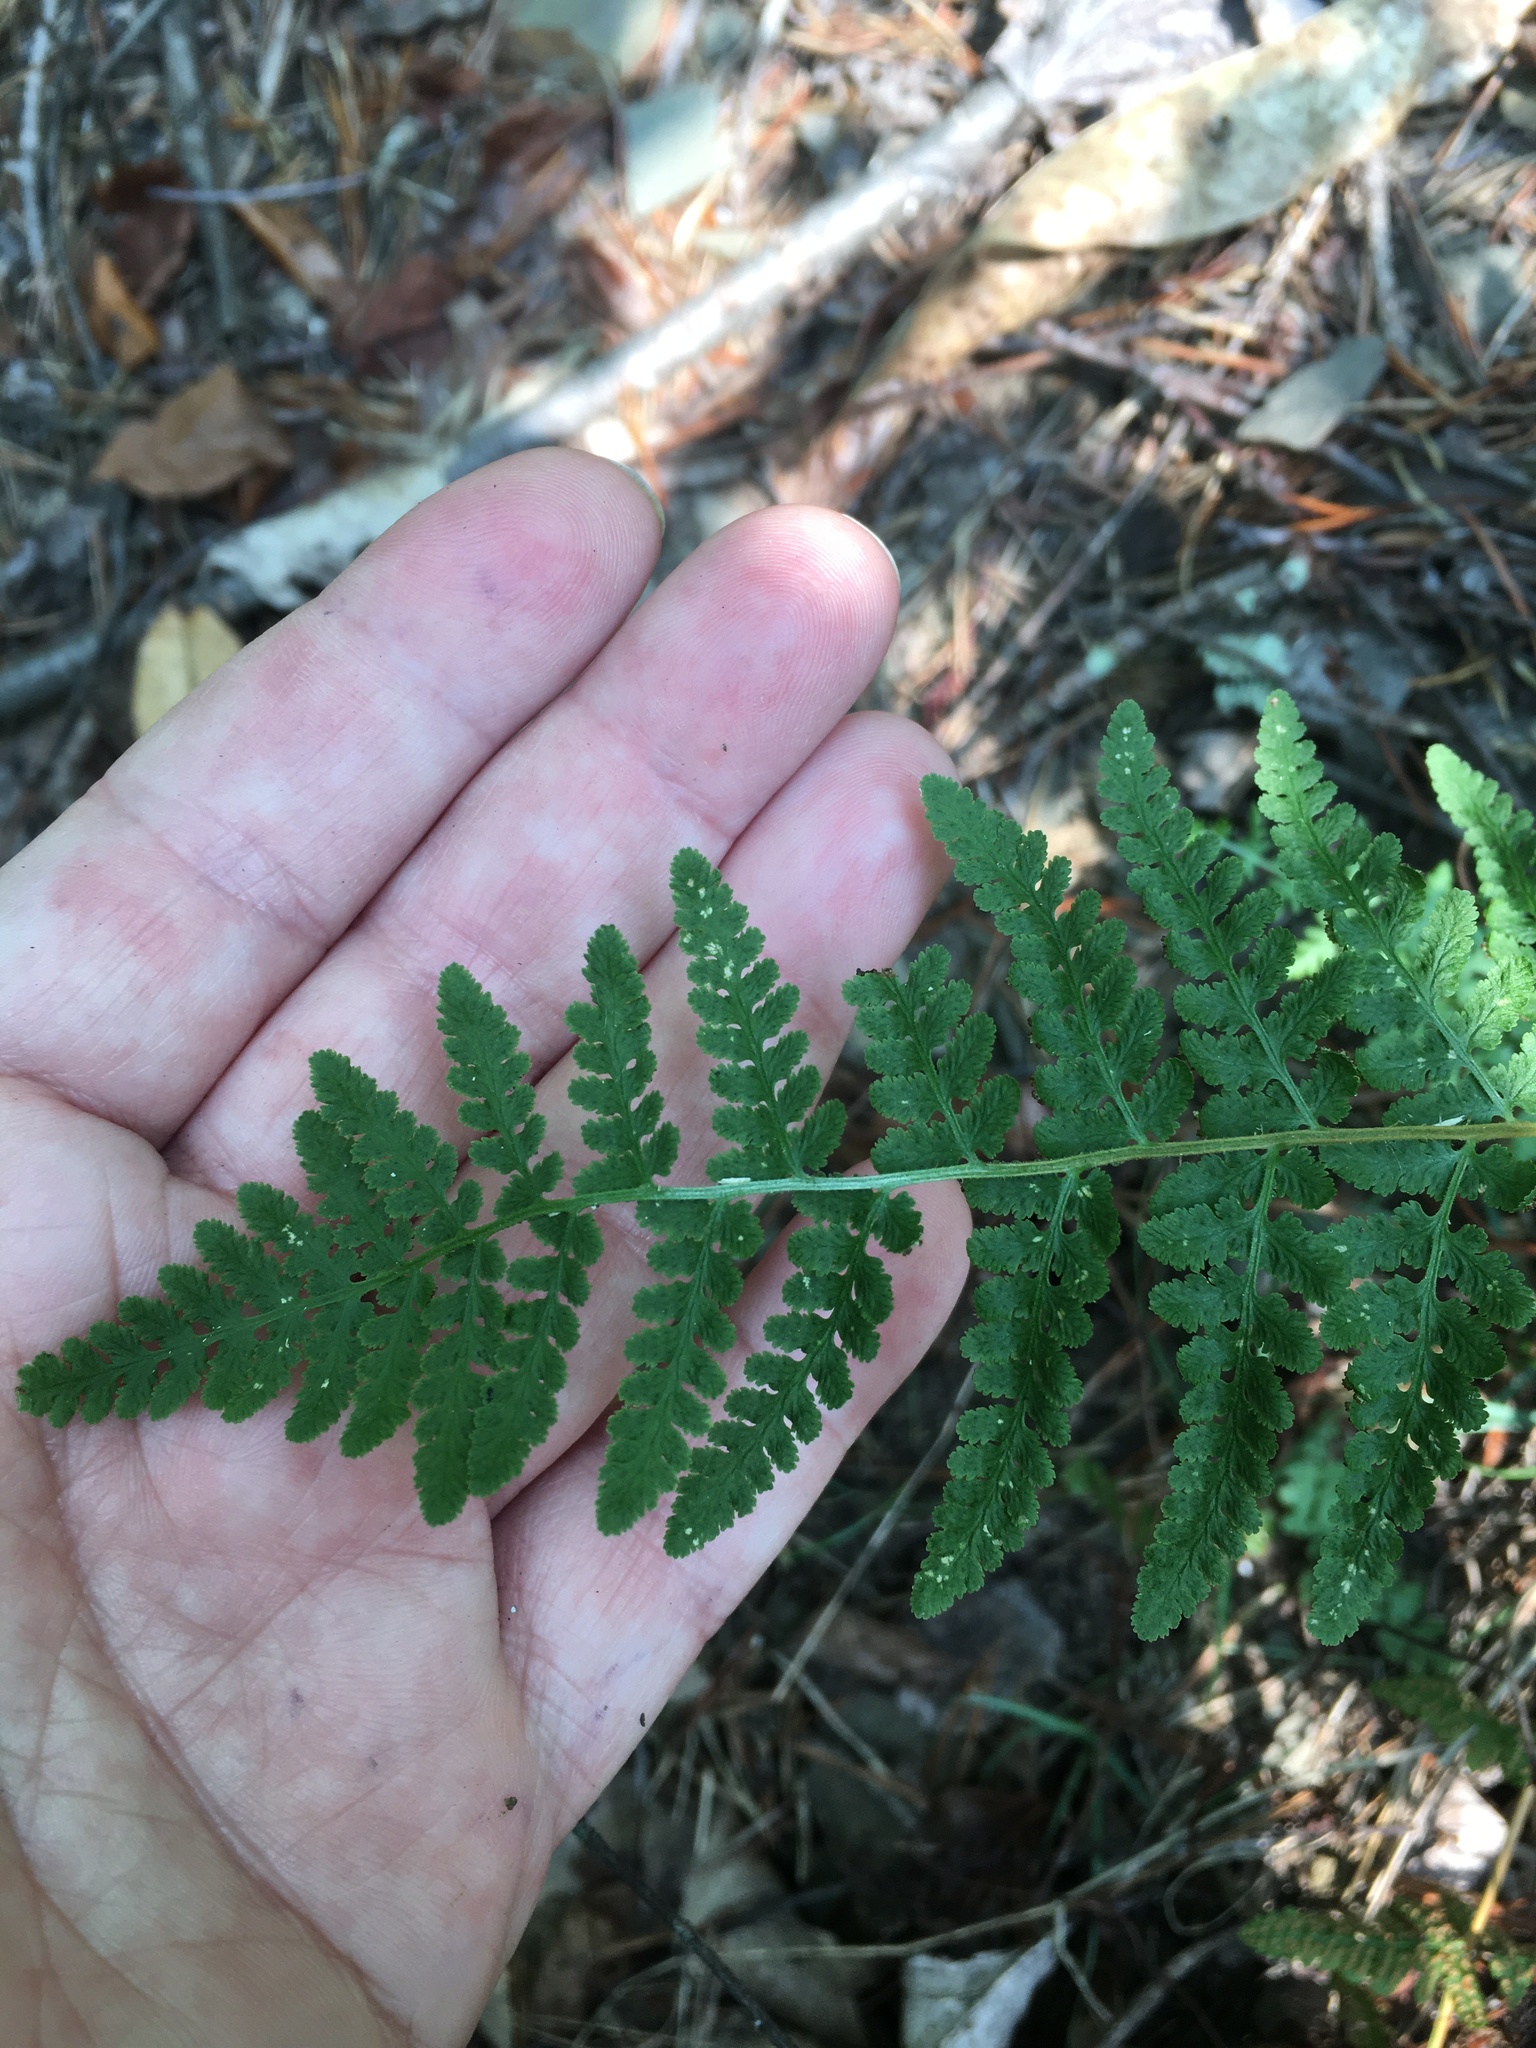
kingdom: Plantae
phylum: Tracheophyta
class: Polypodiopsida
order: Polypodiales
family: Woodsiaceae
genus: Physematium
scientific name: Physematium obtusum
